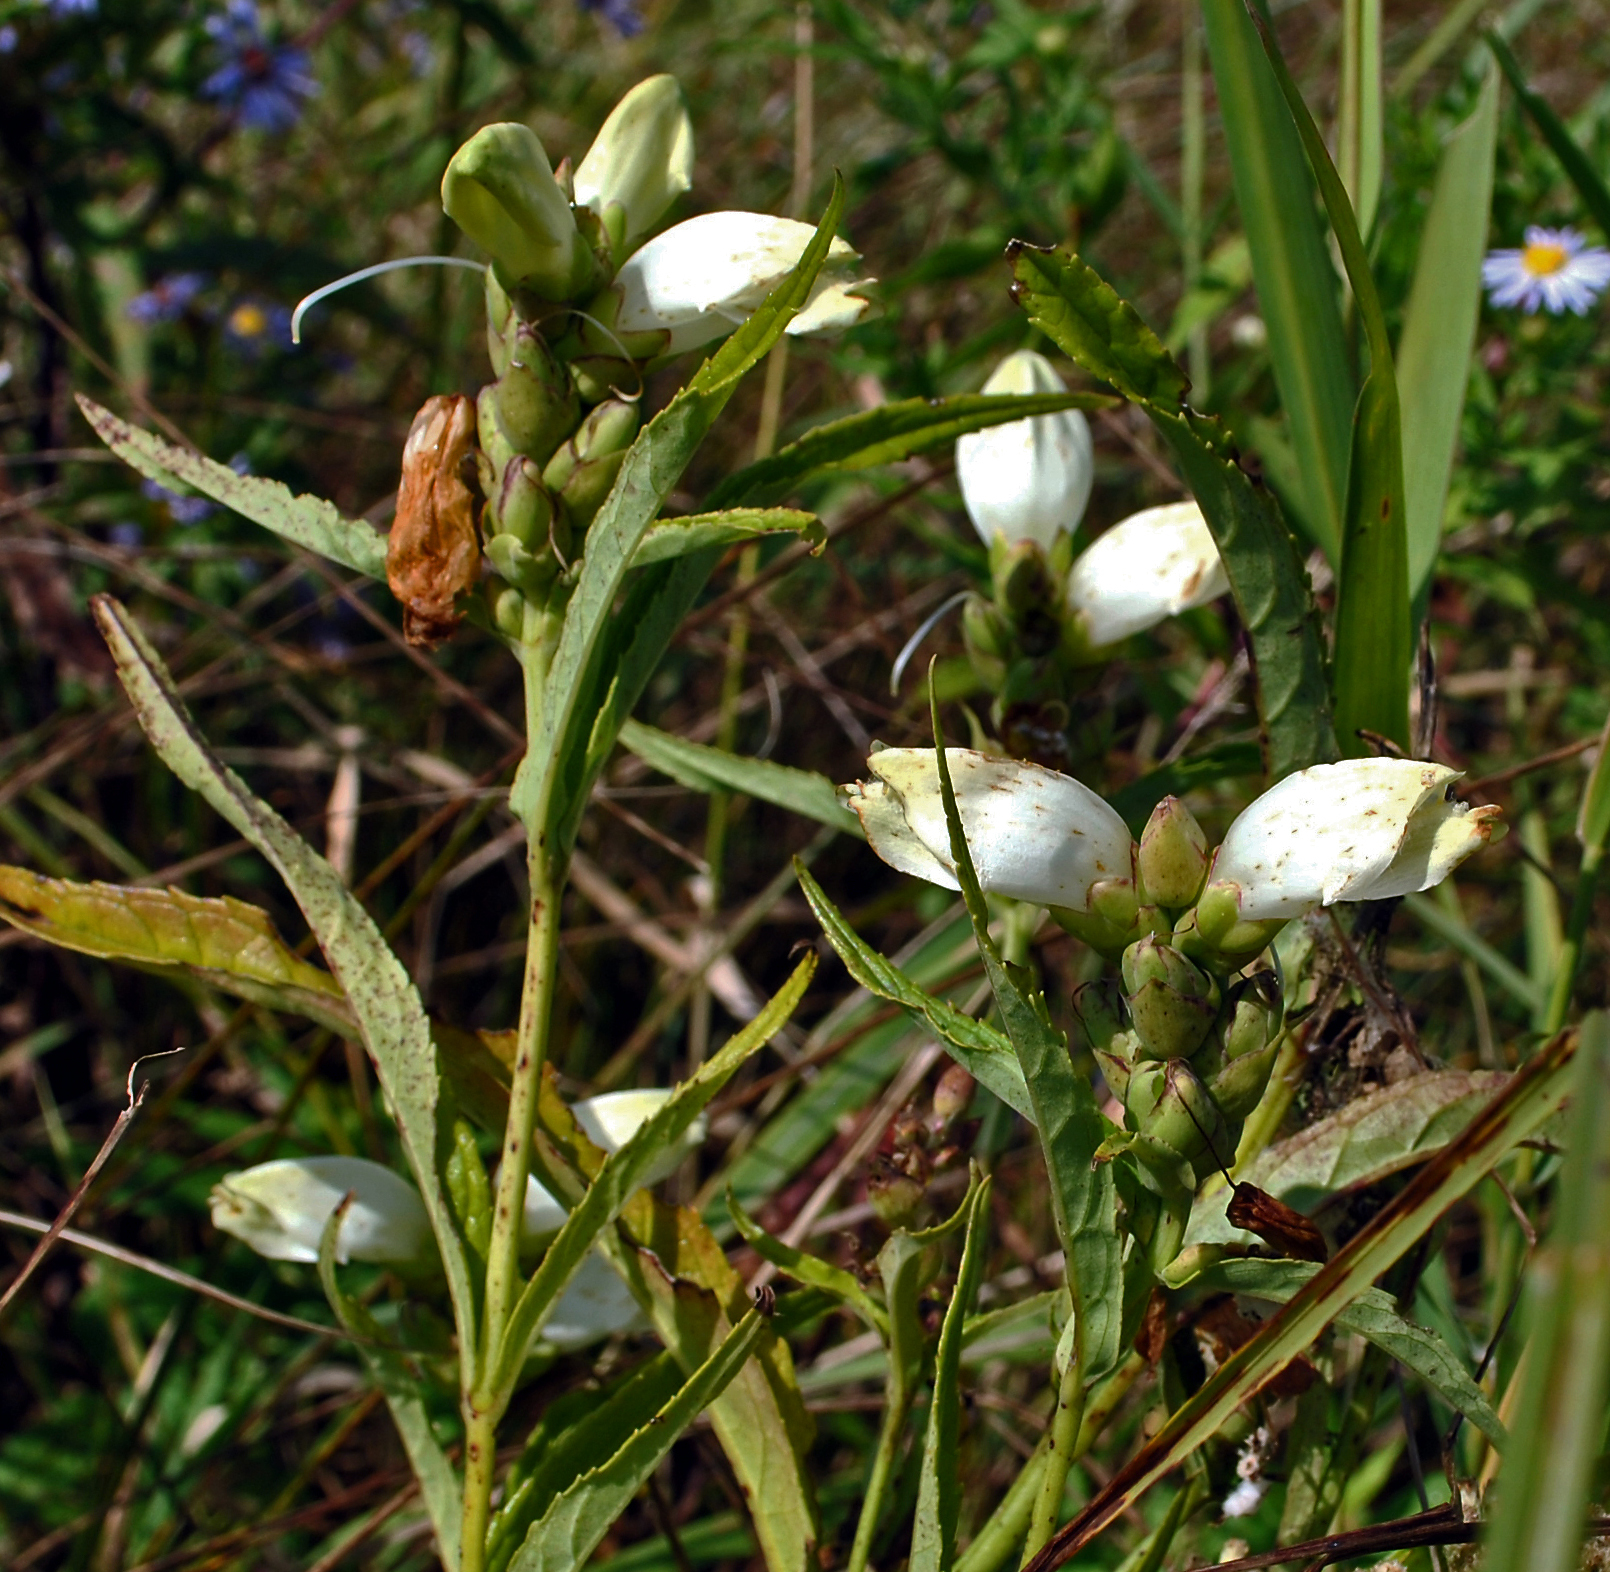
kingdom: Plantae
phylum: Tracheophyta
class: Magnoliopsida
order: Lamiales
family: Plantaginaceae
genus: Chelone
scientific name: Chelone glabra
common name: Snakehead
